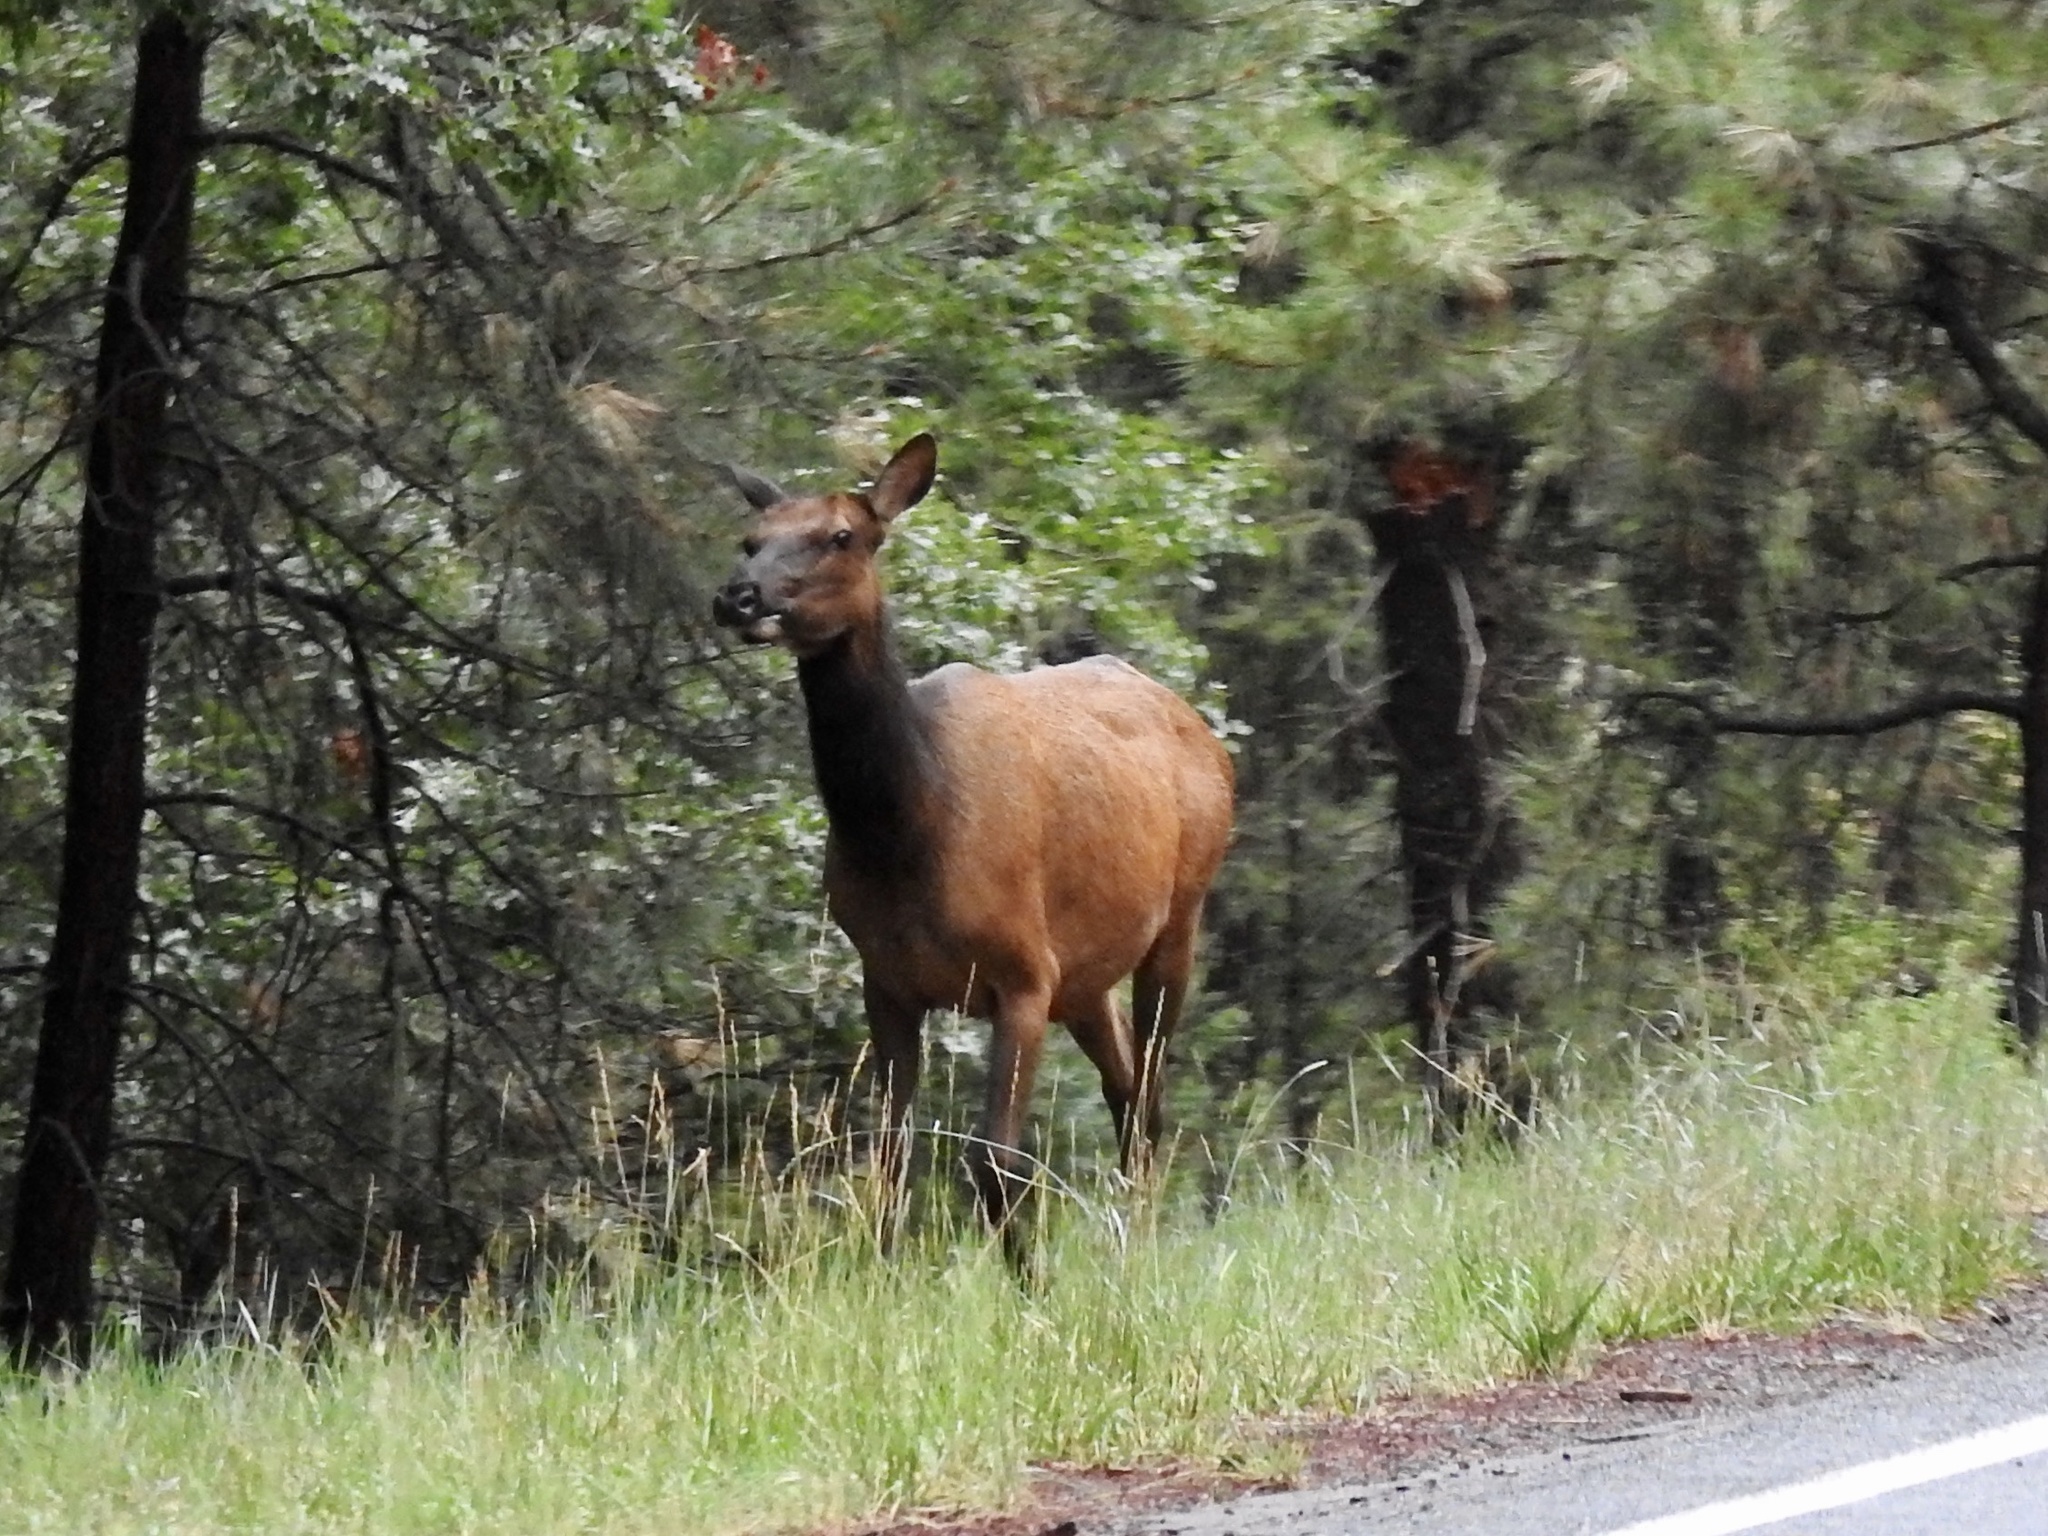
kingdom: Animalia
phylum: Chordata
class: Mammalia
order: Artiodactyla
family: Cervidae
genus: Cervus
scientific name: Cervus elaphus
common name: Red deer
